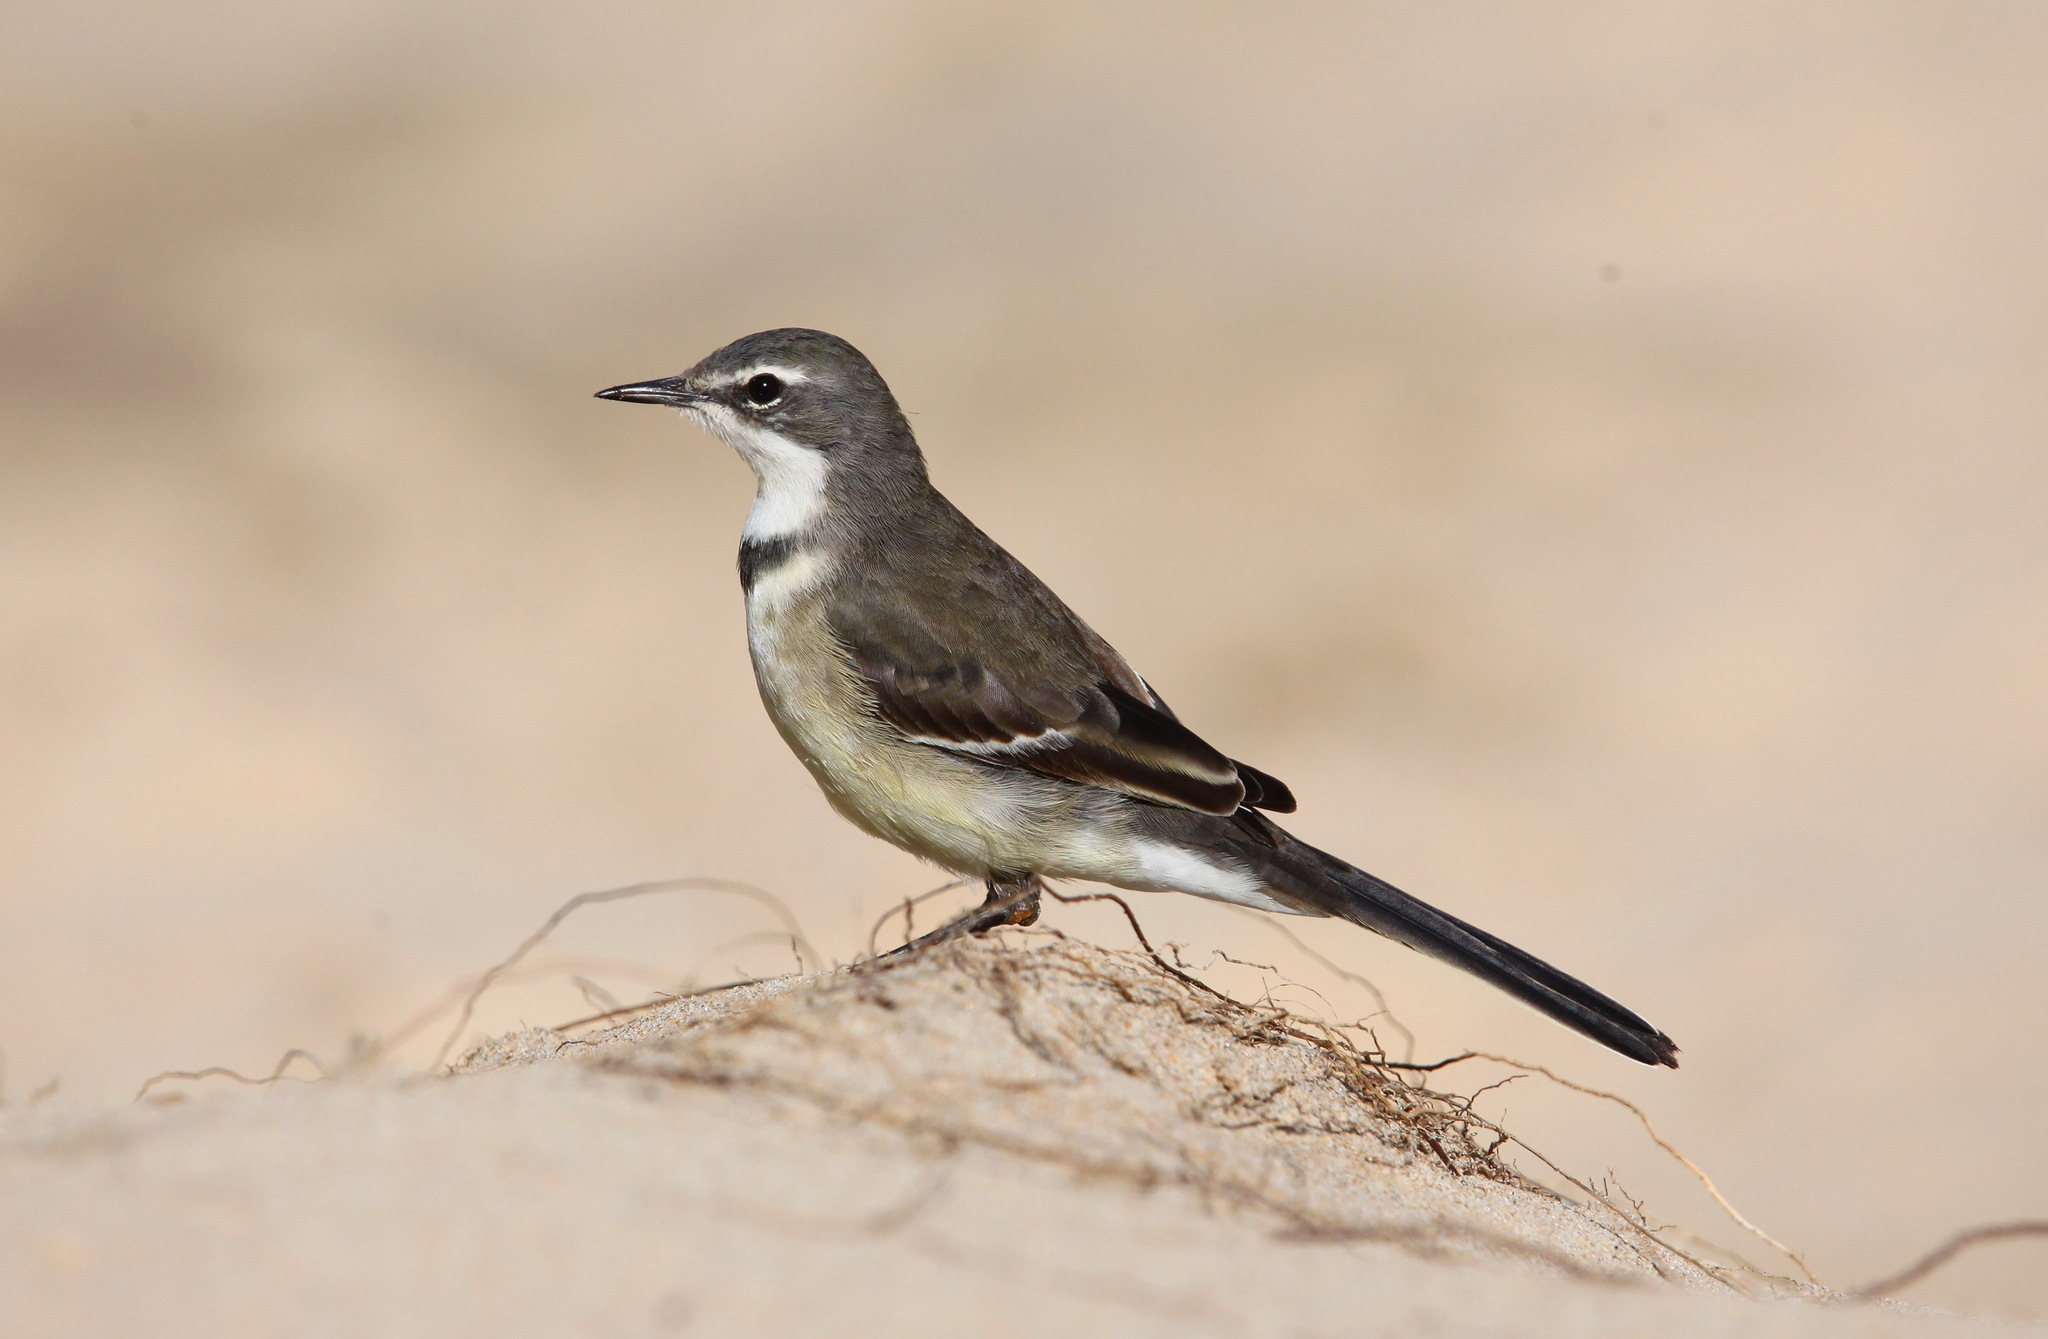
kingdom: Animalia
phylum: Chordata
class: Aves
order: Passeriformes
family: Motacillidae
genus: Motacilla
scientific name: Motacilla capensis
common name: Cape wagtail
